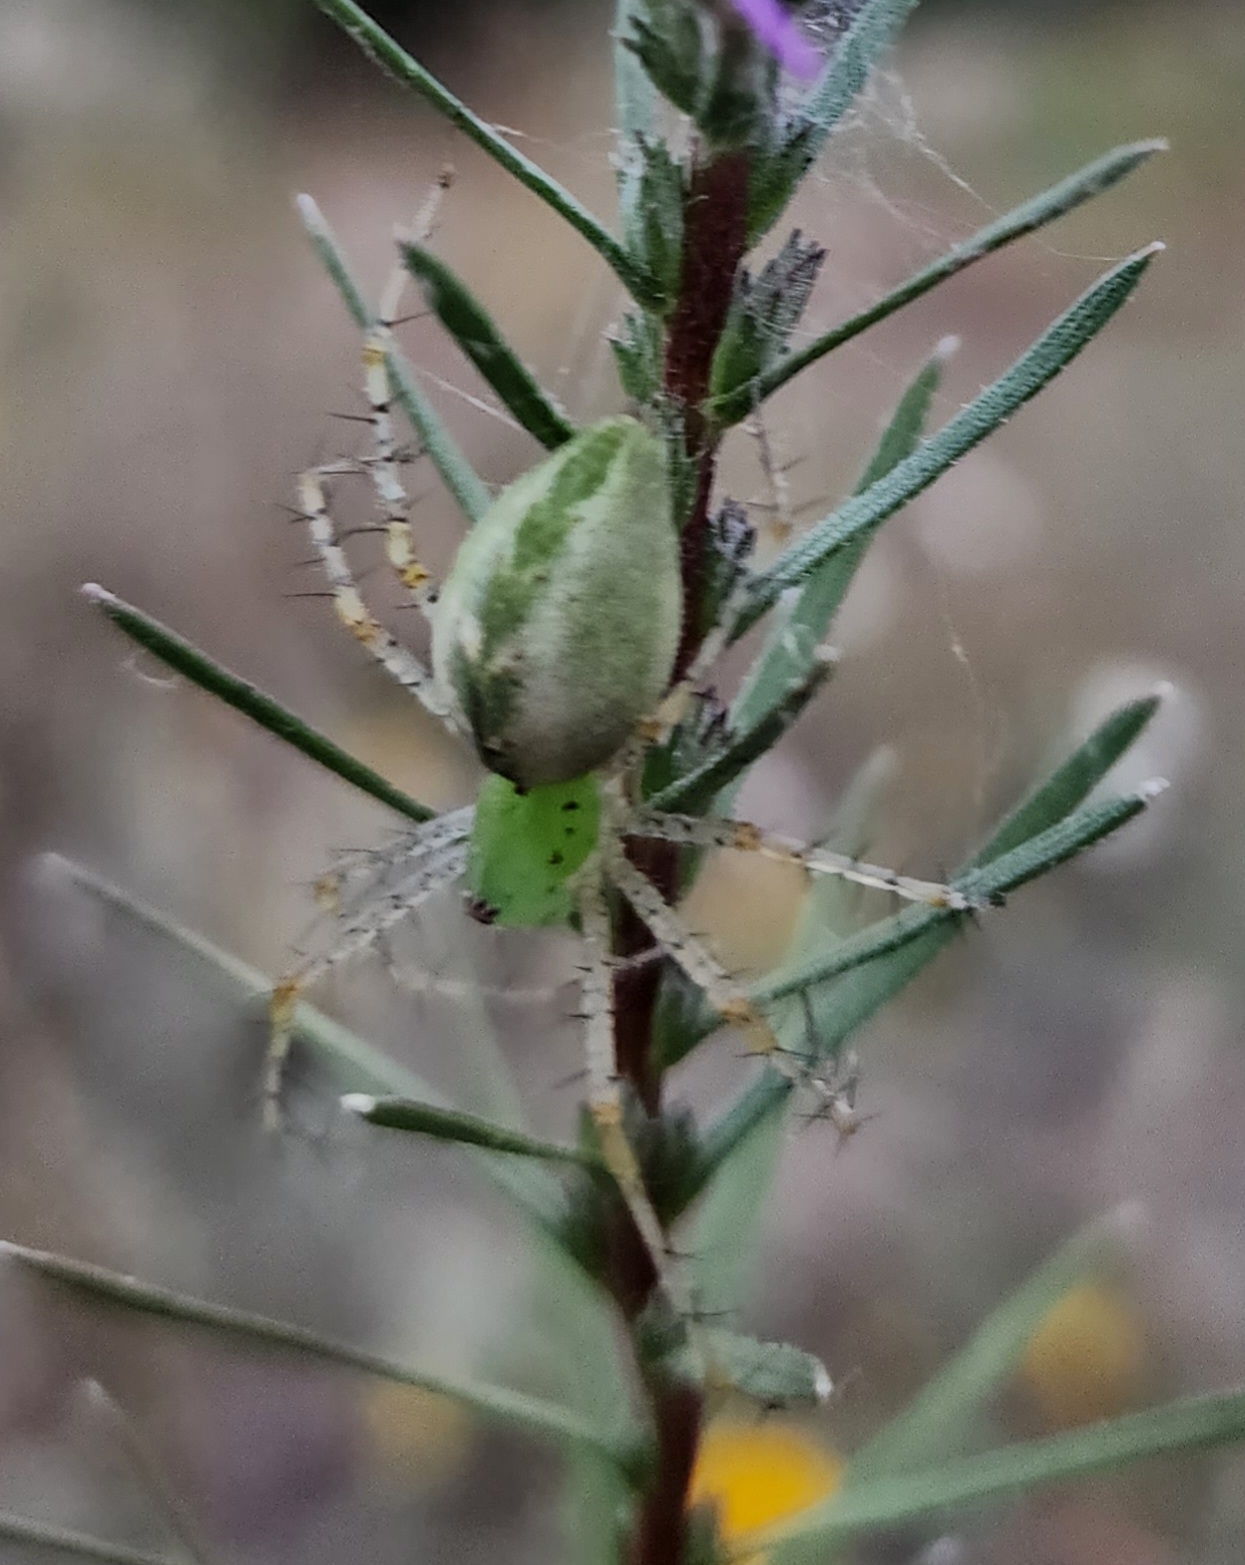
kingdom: Animalia
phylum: Arthropoda
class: Arachnida
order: Araneae
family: Oxyopidae
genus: Peucetia
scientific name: Peucetia viridans
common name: Lynx spiders
